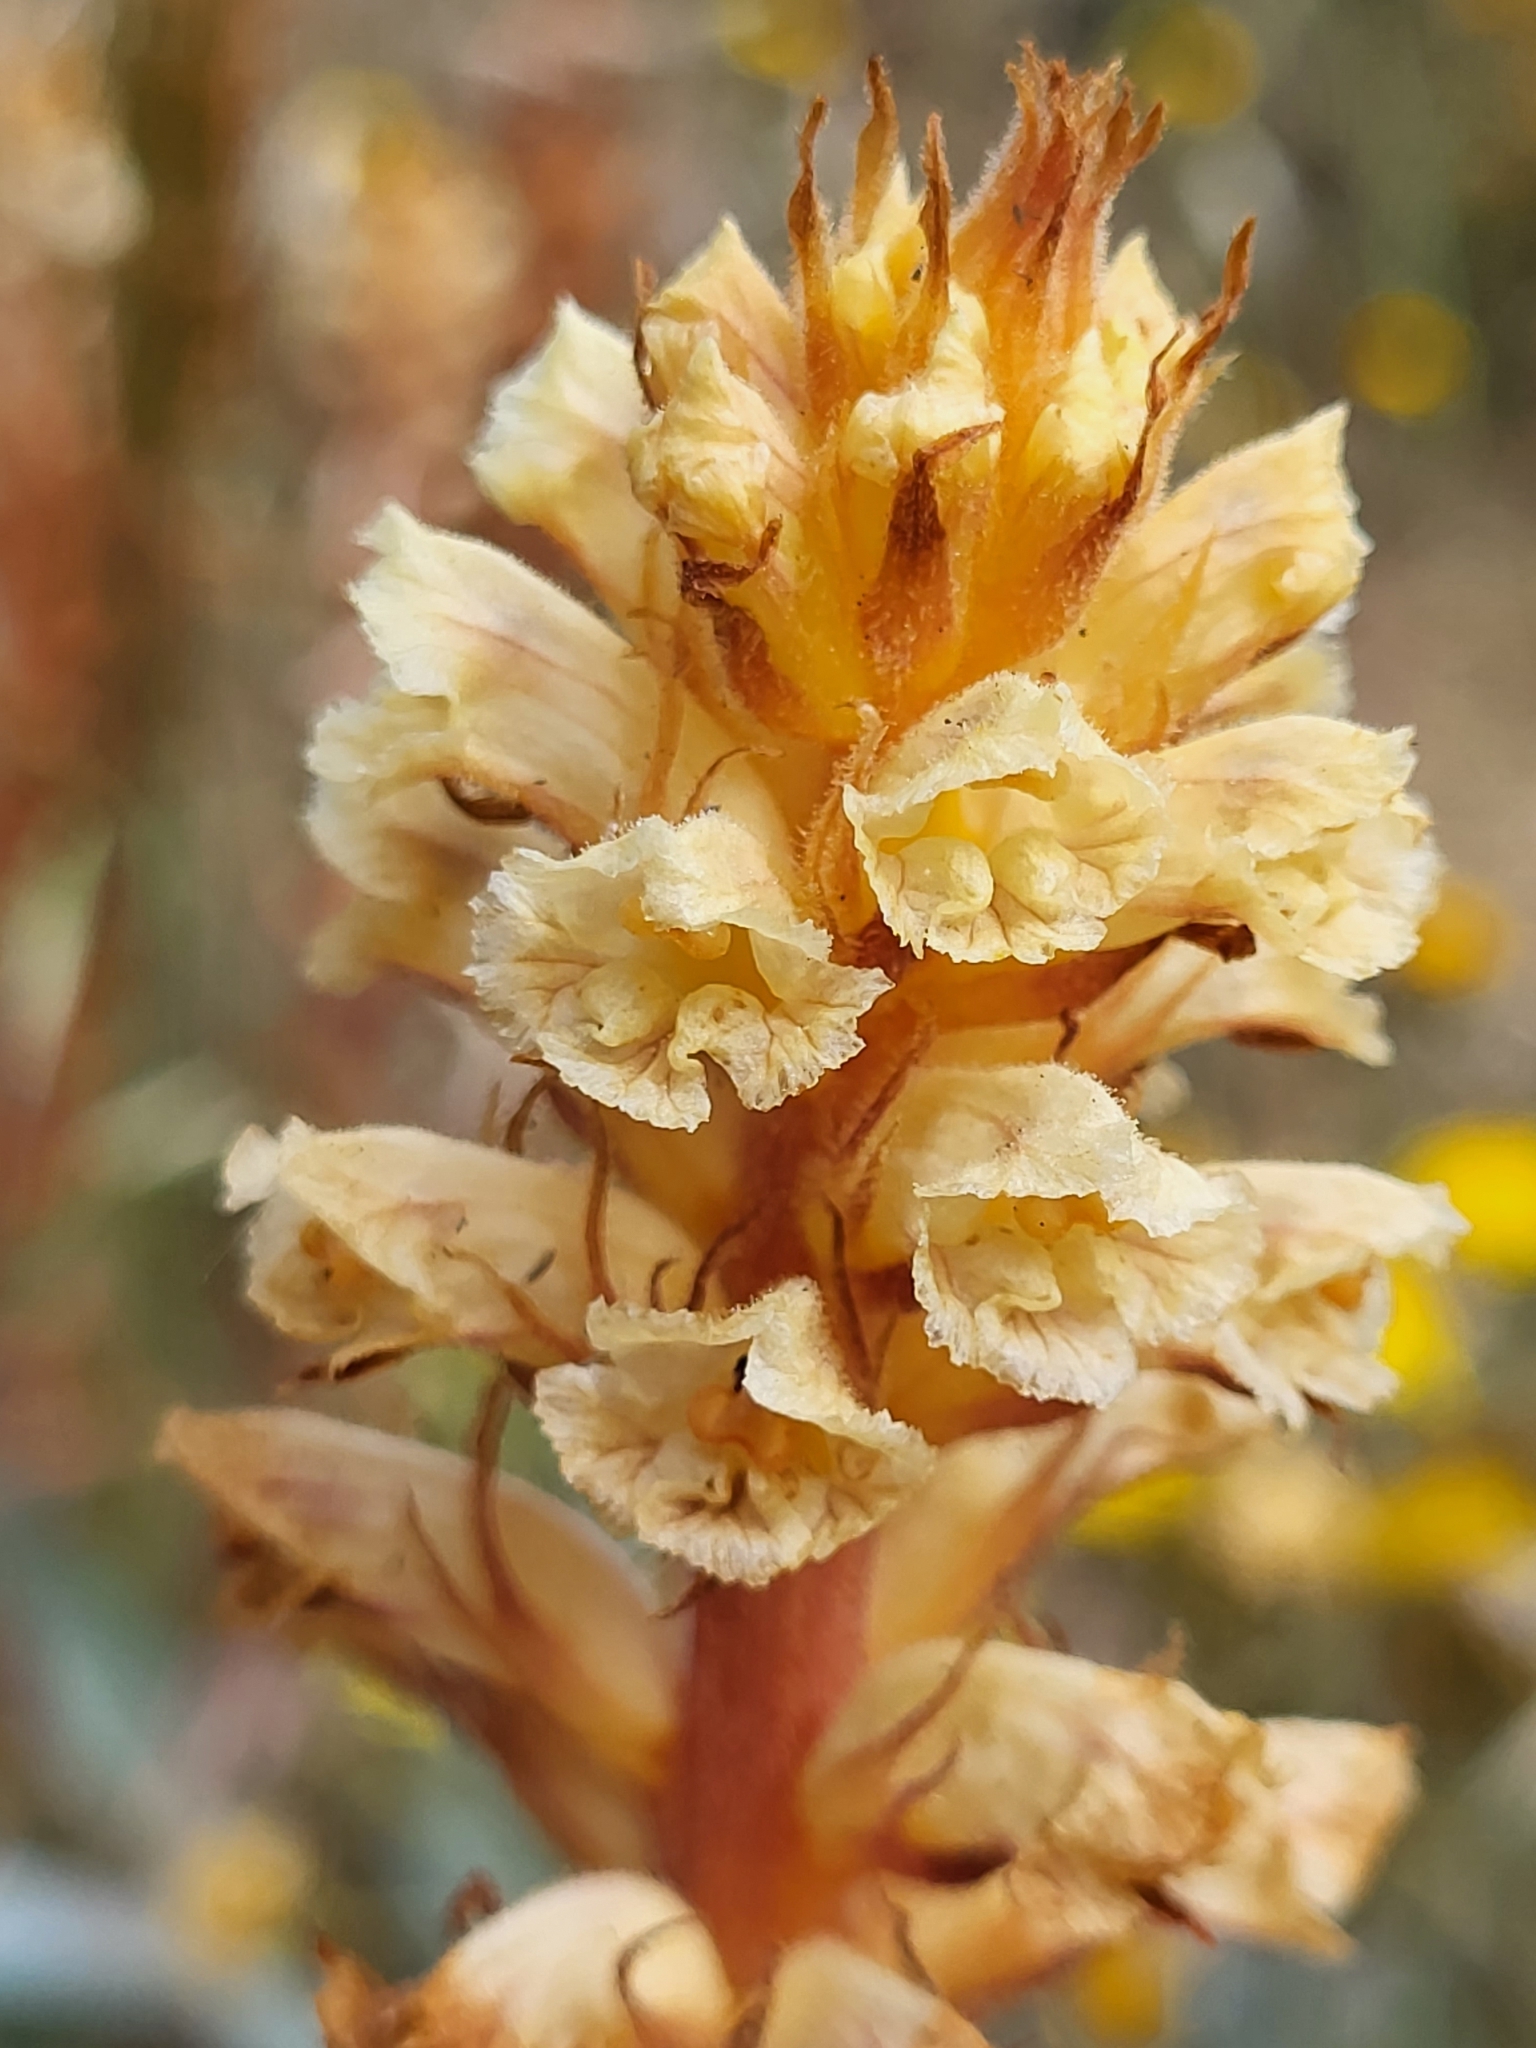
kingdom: Plantae
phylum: Tracheophyta
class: Magnoliopsida
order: Lamiales
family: Orobanchaceae
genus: Orobanche
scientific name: Orobanche minor
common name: Common broomrape
